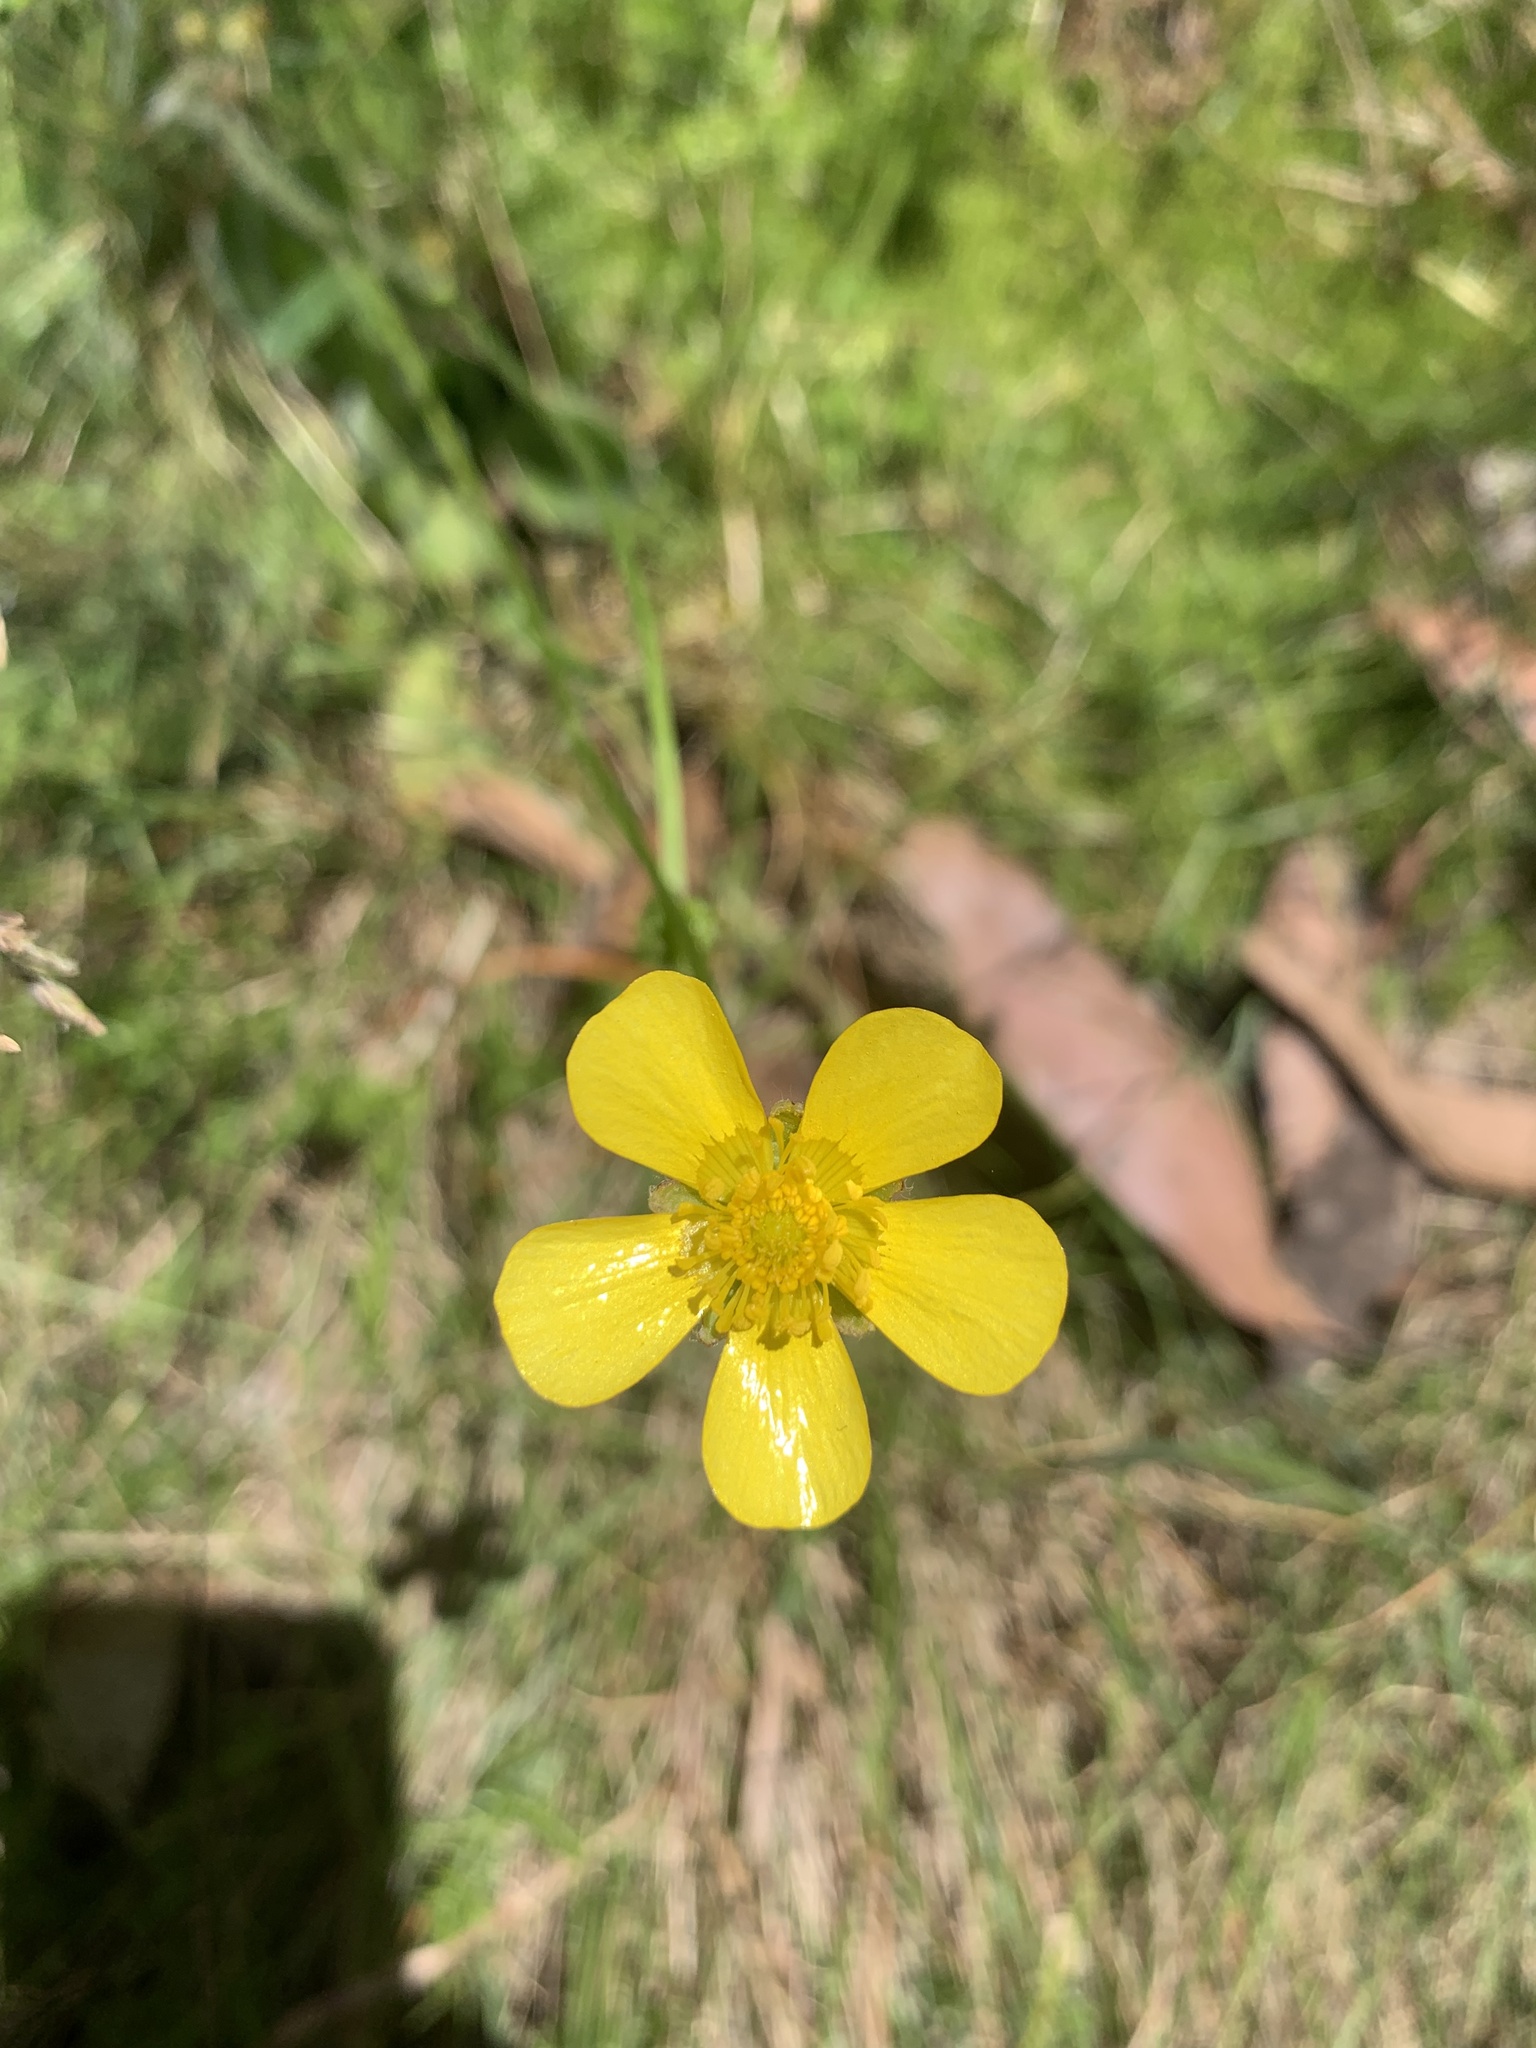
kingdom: Plantae
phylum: Tracheophyta
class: Magnoliopsida
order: Ranunculales
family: Ranunculaceae
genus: Ranunculus
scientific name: Ranunculus lappaceus
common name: Australian buttercup
